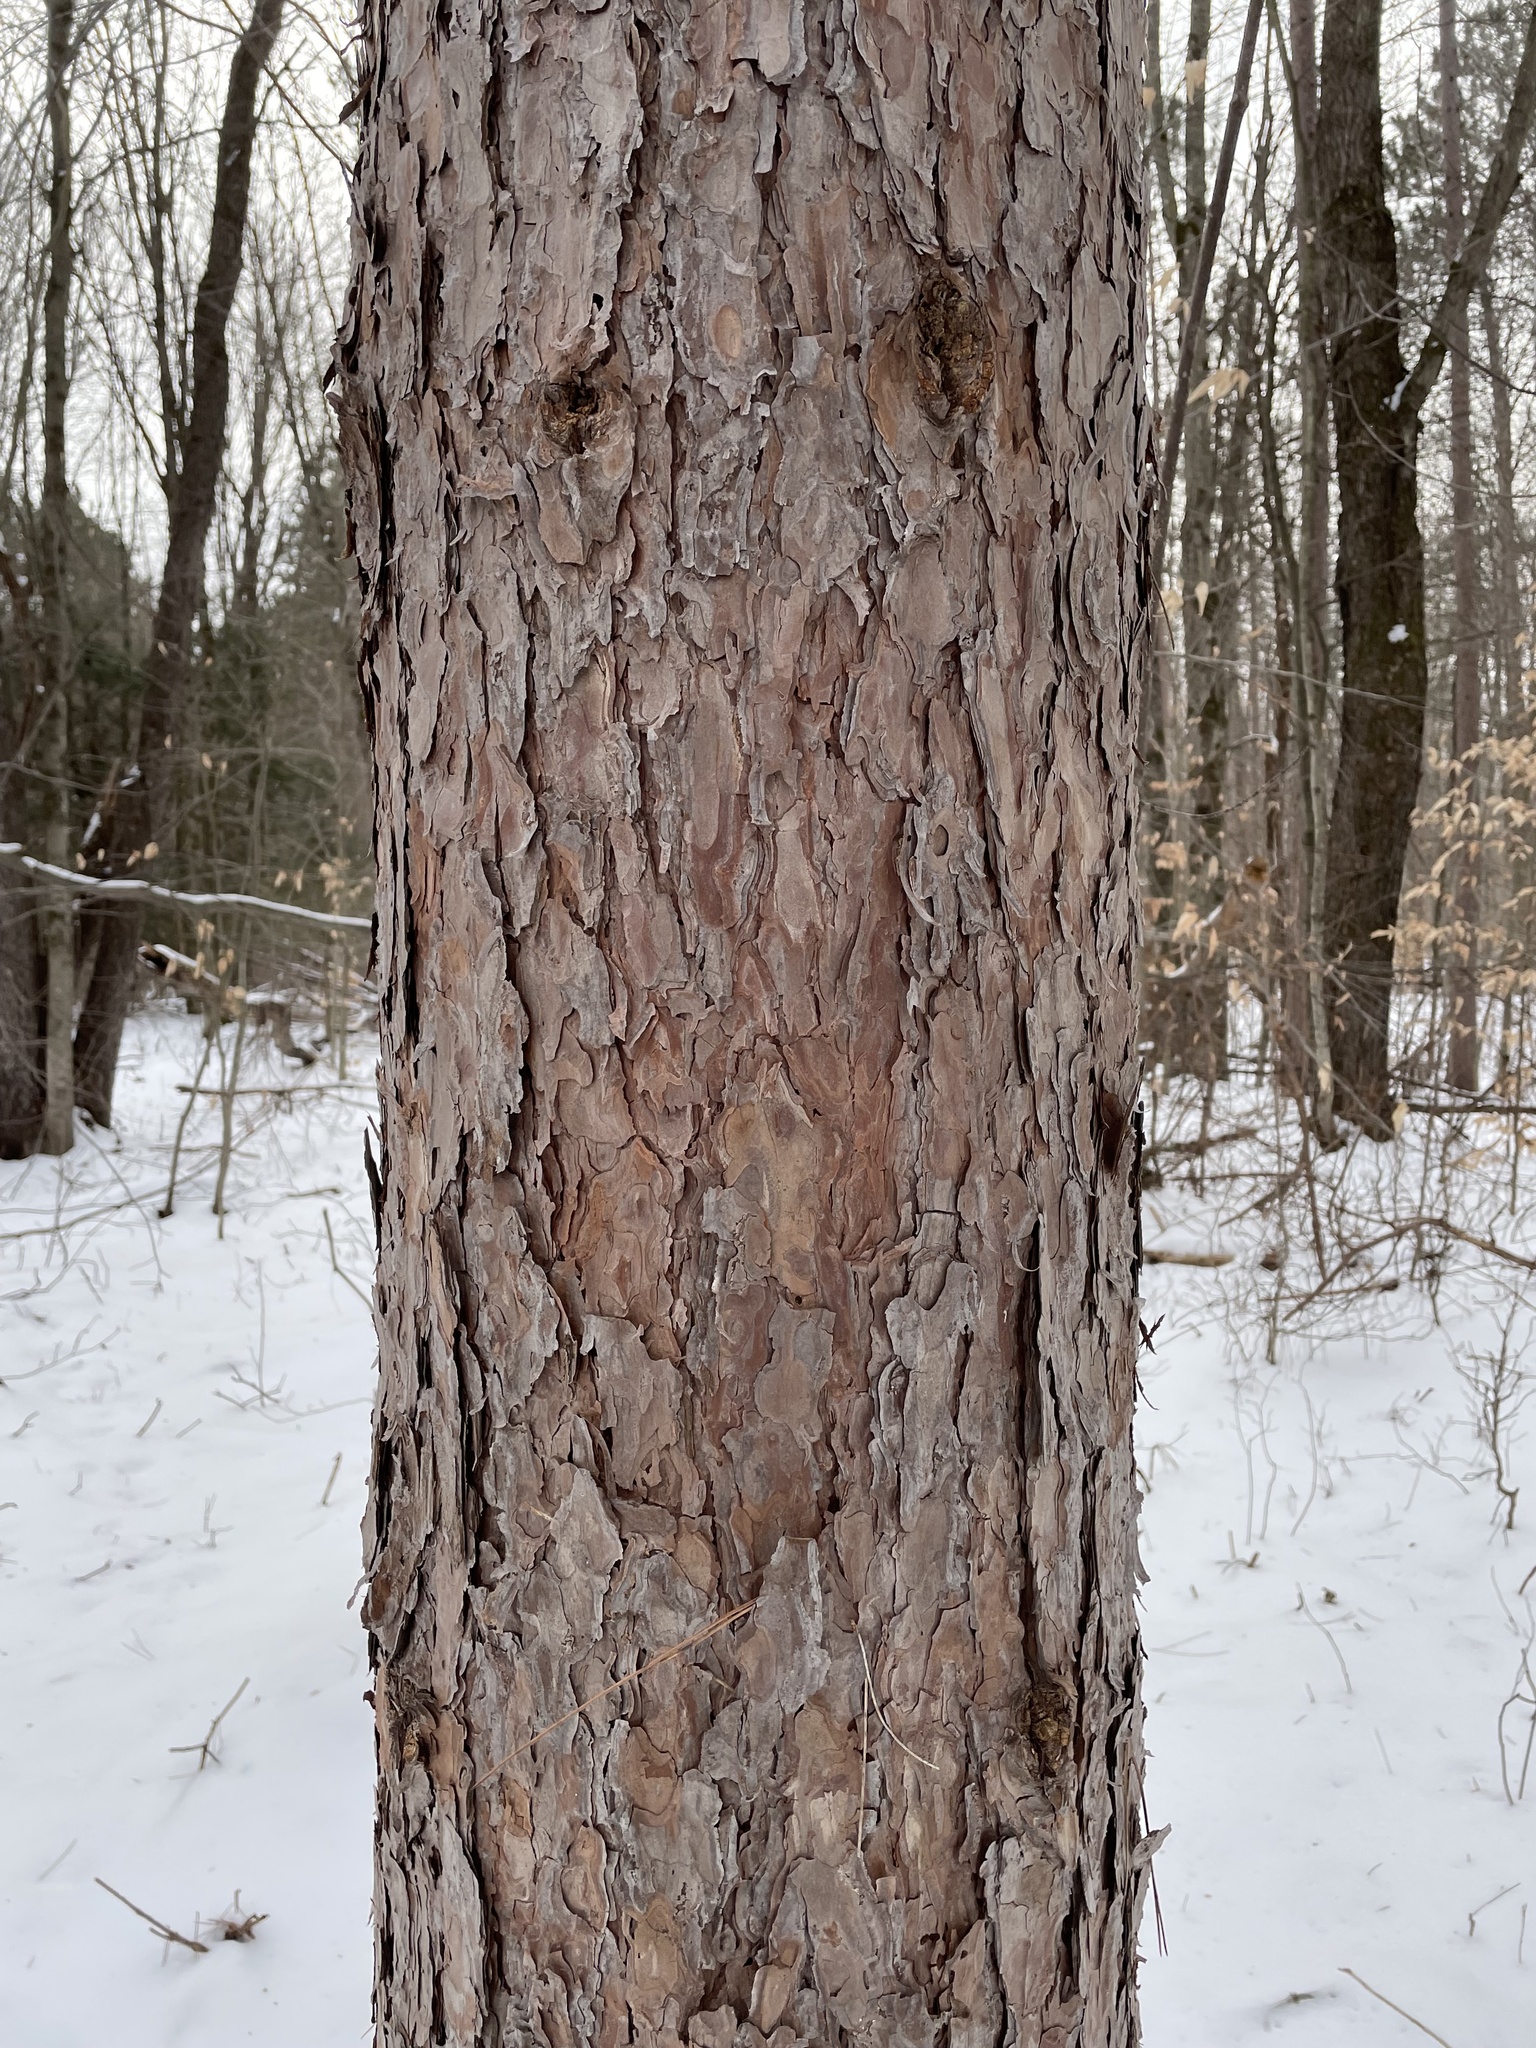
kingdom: Plantae
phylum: Tracheophyta
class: Pinopsida
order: Pinales
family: Pinaceae
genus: Pinus
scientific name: Pinus resinosa
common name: Norway pine
